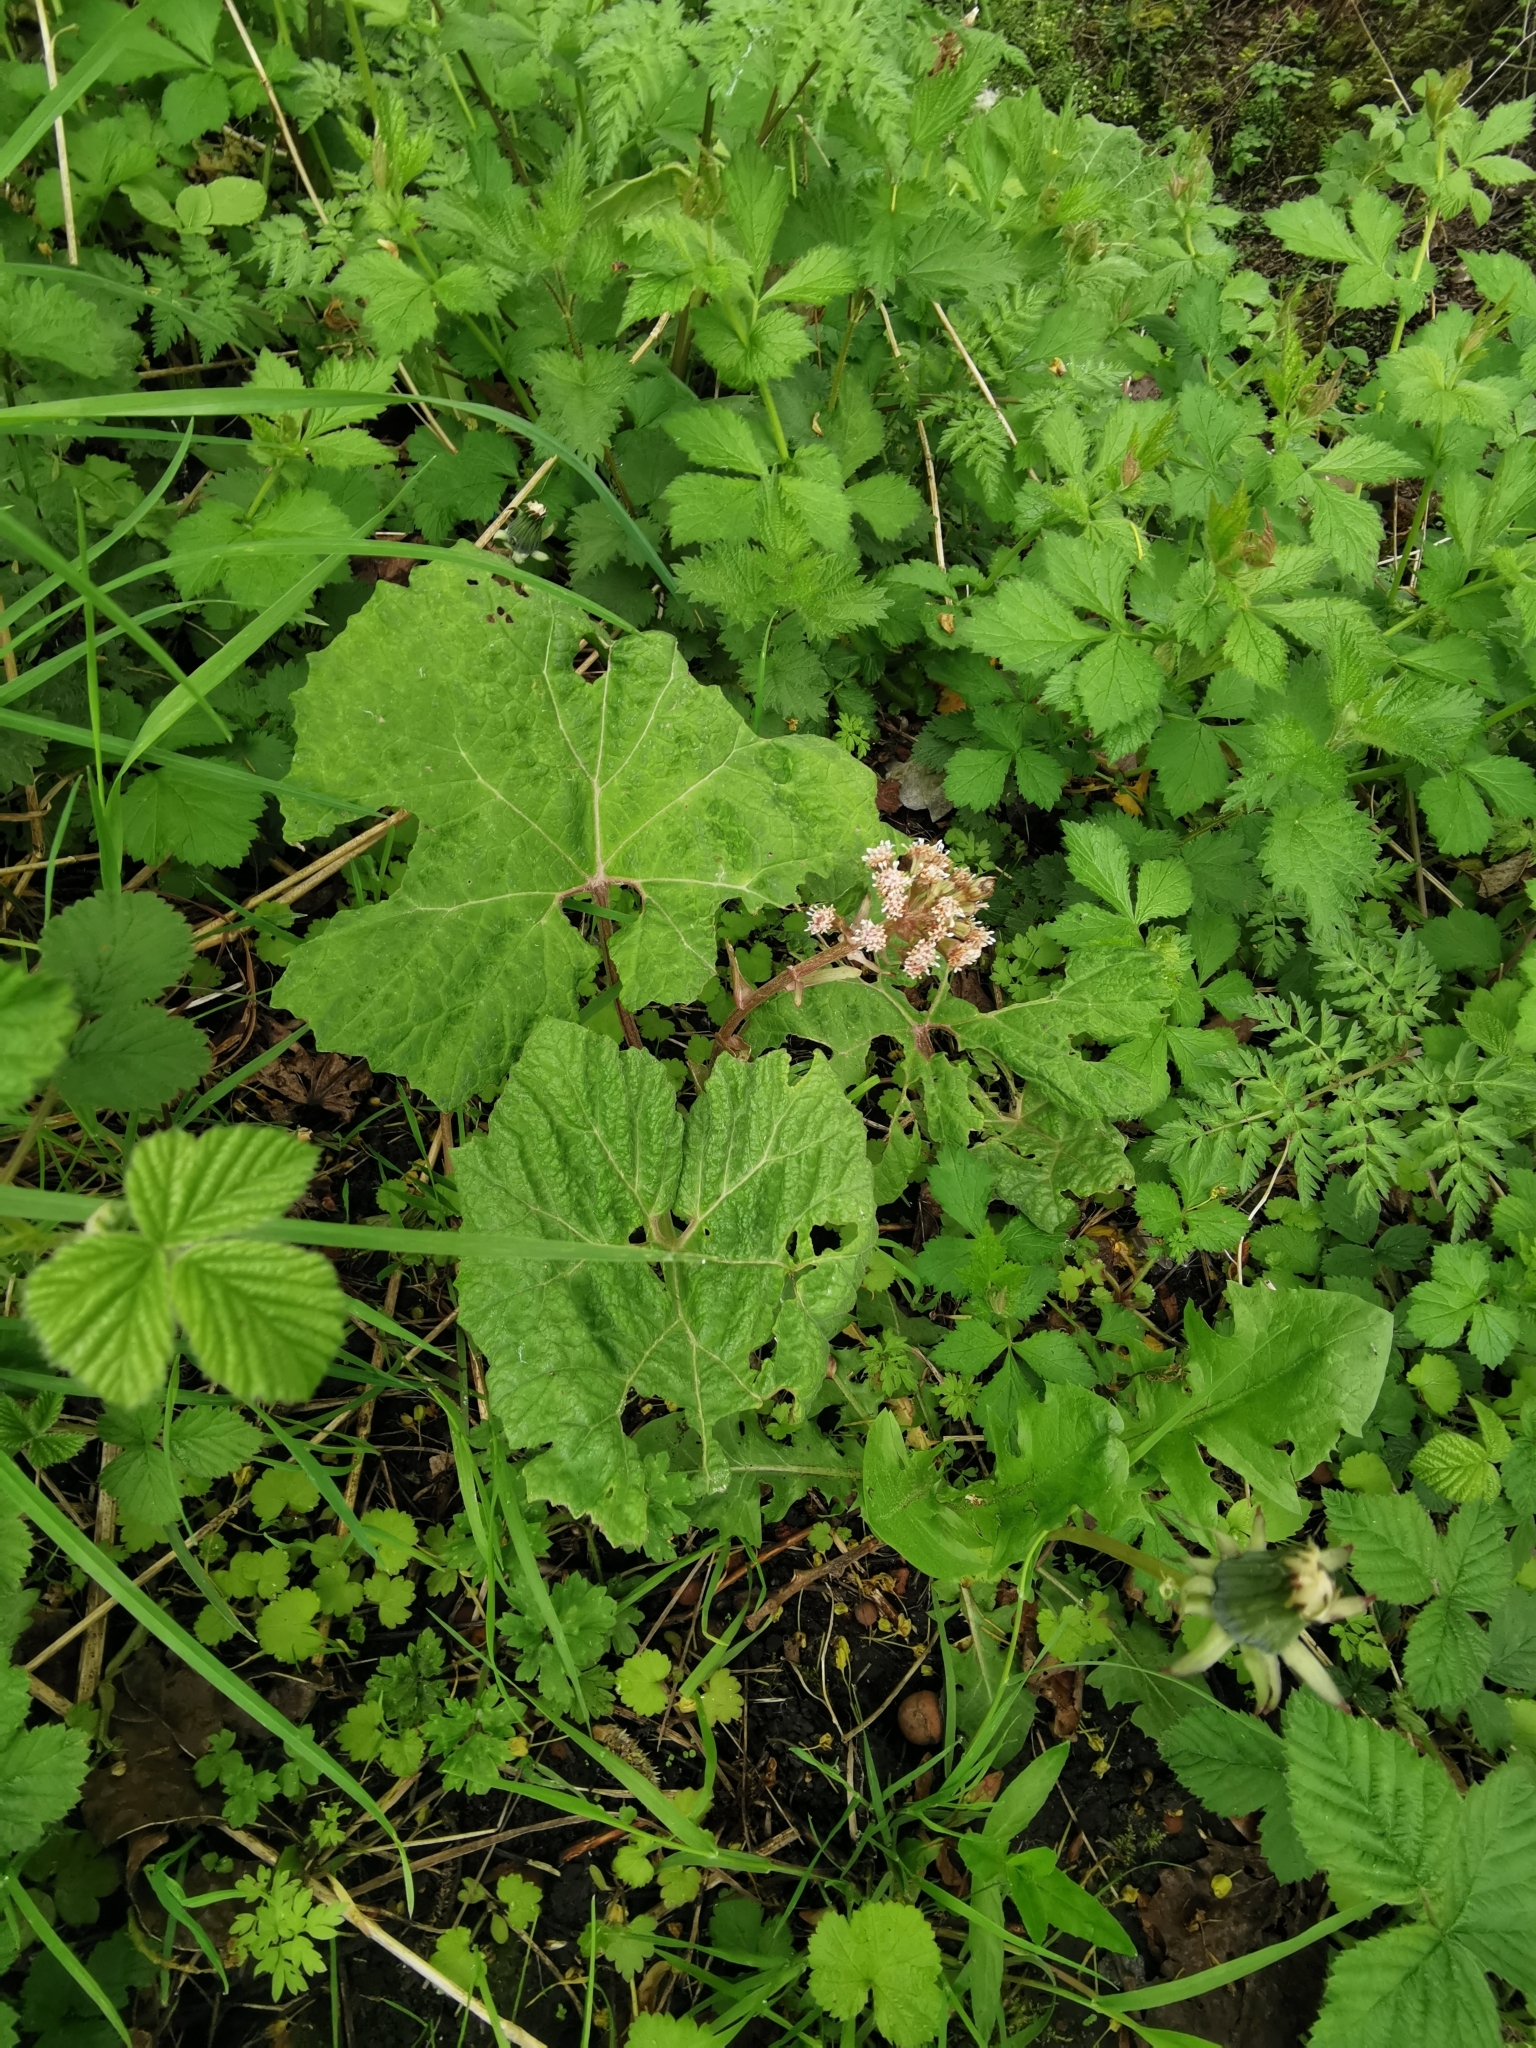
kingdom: Plantae
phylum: Tracheophyta
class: Magnoliopsida
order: Asterales
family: Asteraceae
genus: Petasites
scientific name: Petasites hybridus
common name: Butterbur
